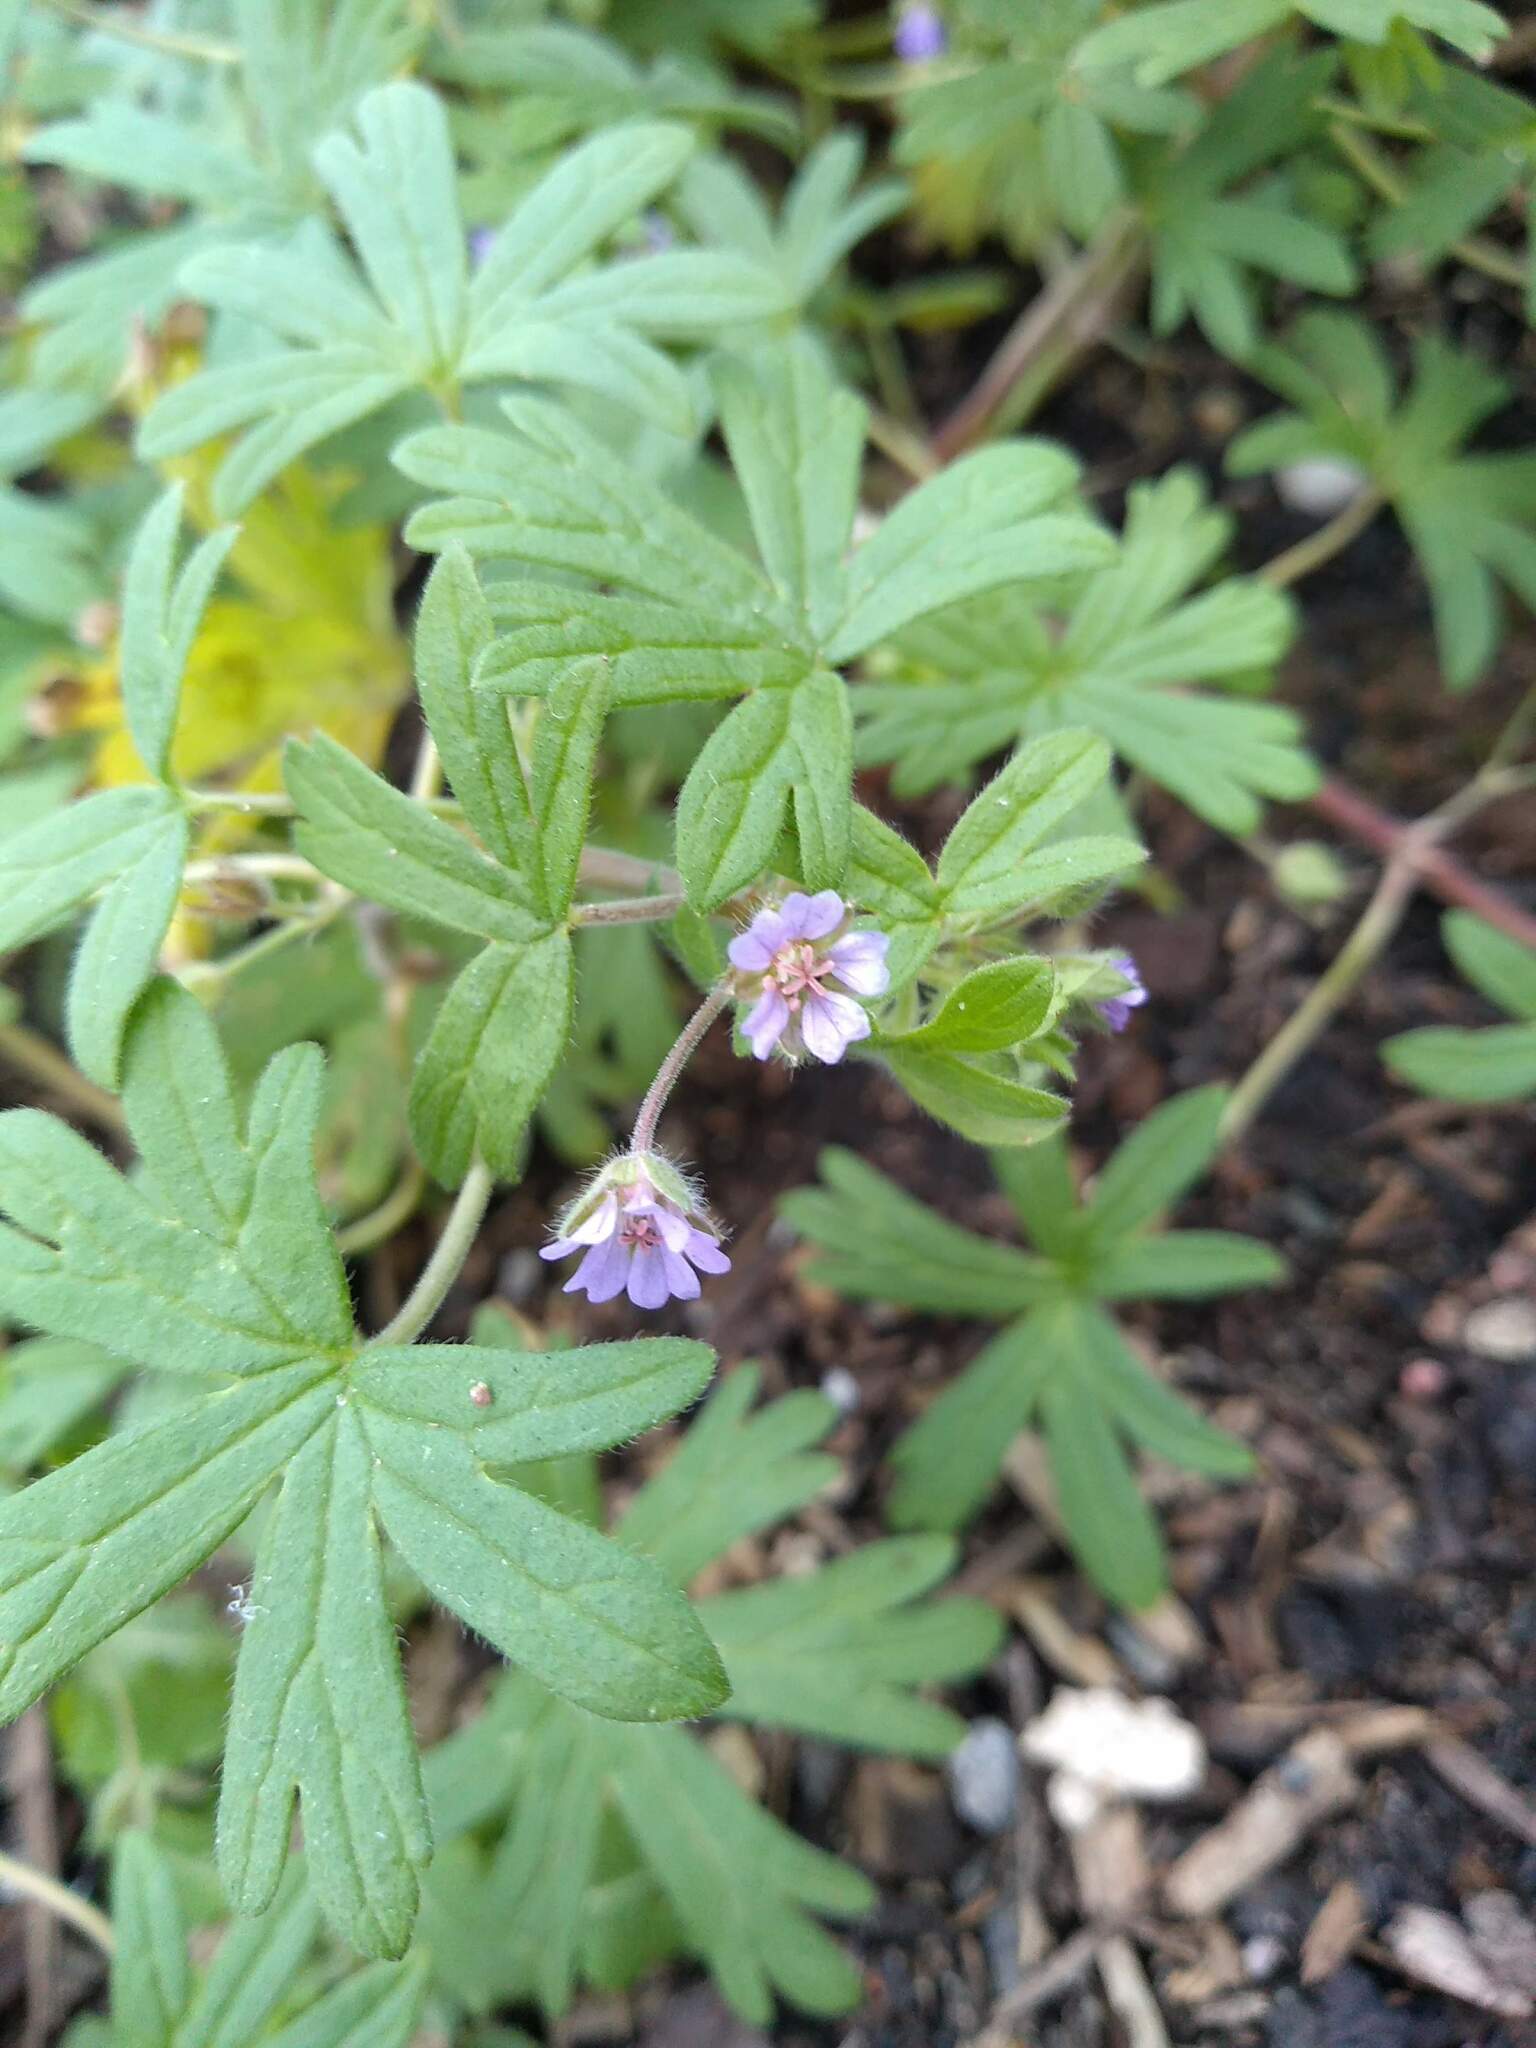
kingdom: Plantae
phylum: Tracheophyta
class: Magnoliopsida
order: Geraniales
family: Geraniaceae
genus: Geranium
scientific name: Geranium pusillum
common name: Small geranium
